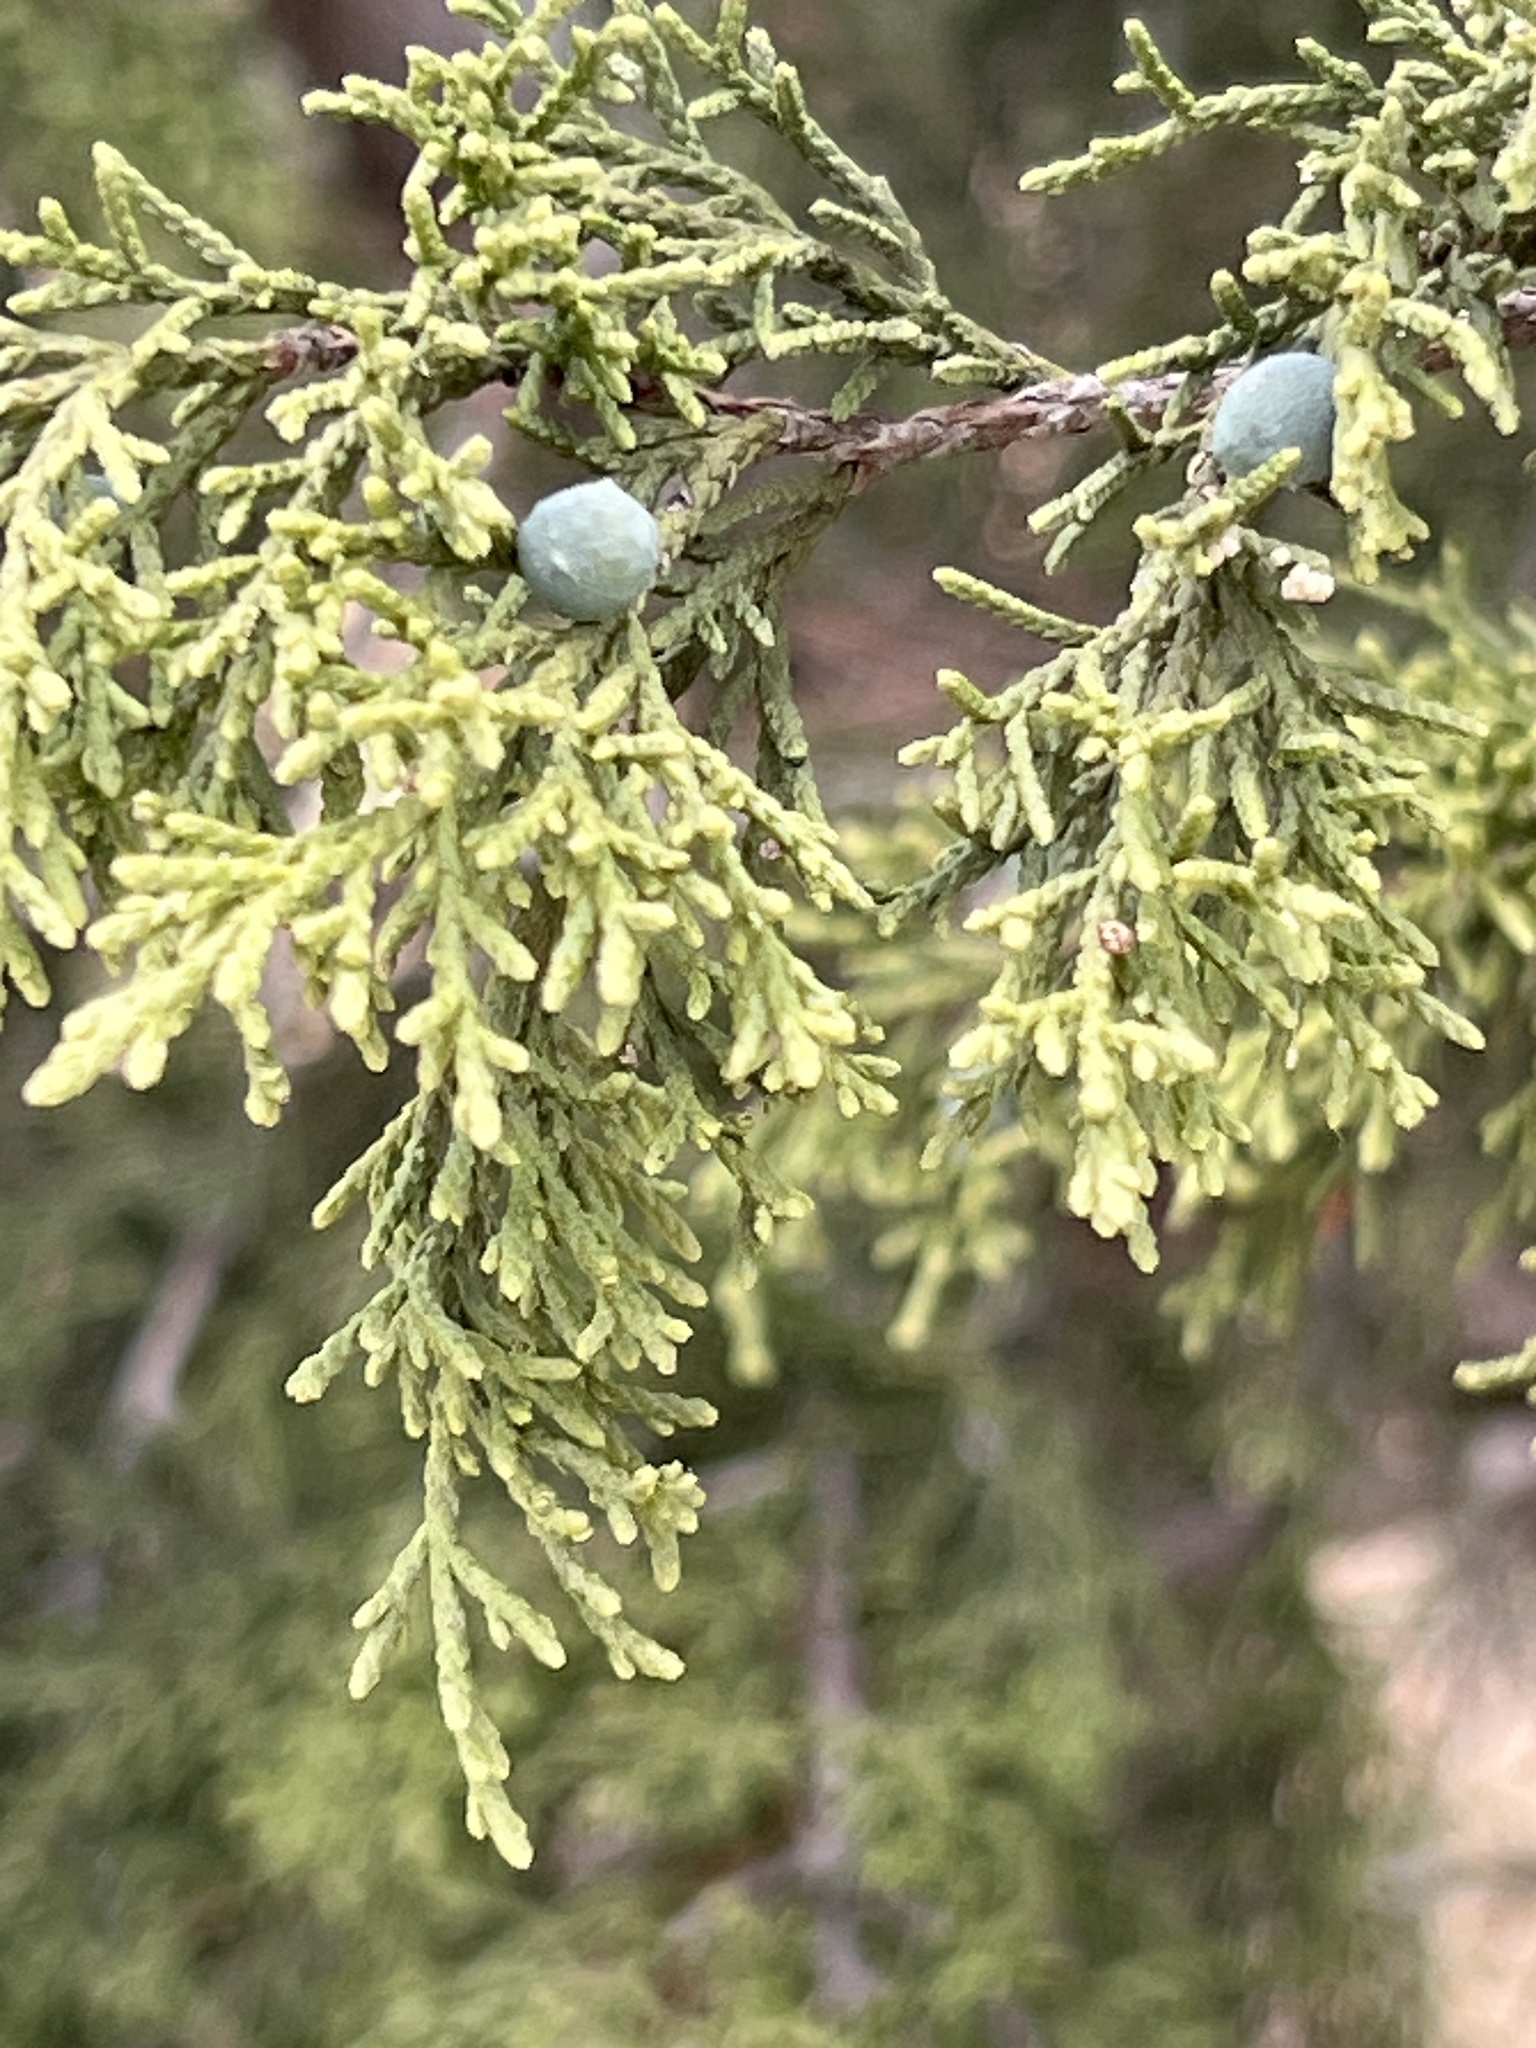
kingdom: Plantae
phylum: Tracheophyta
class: Pinopsida
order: Pinales
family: Cupressaceae
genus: Juniperus
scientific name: Juniperus ashei
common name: Mexican juniper
